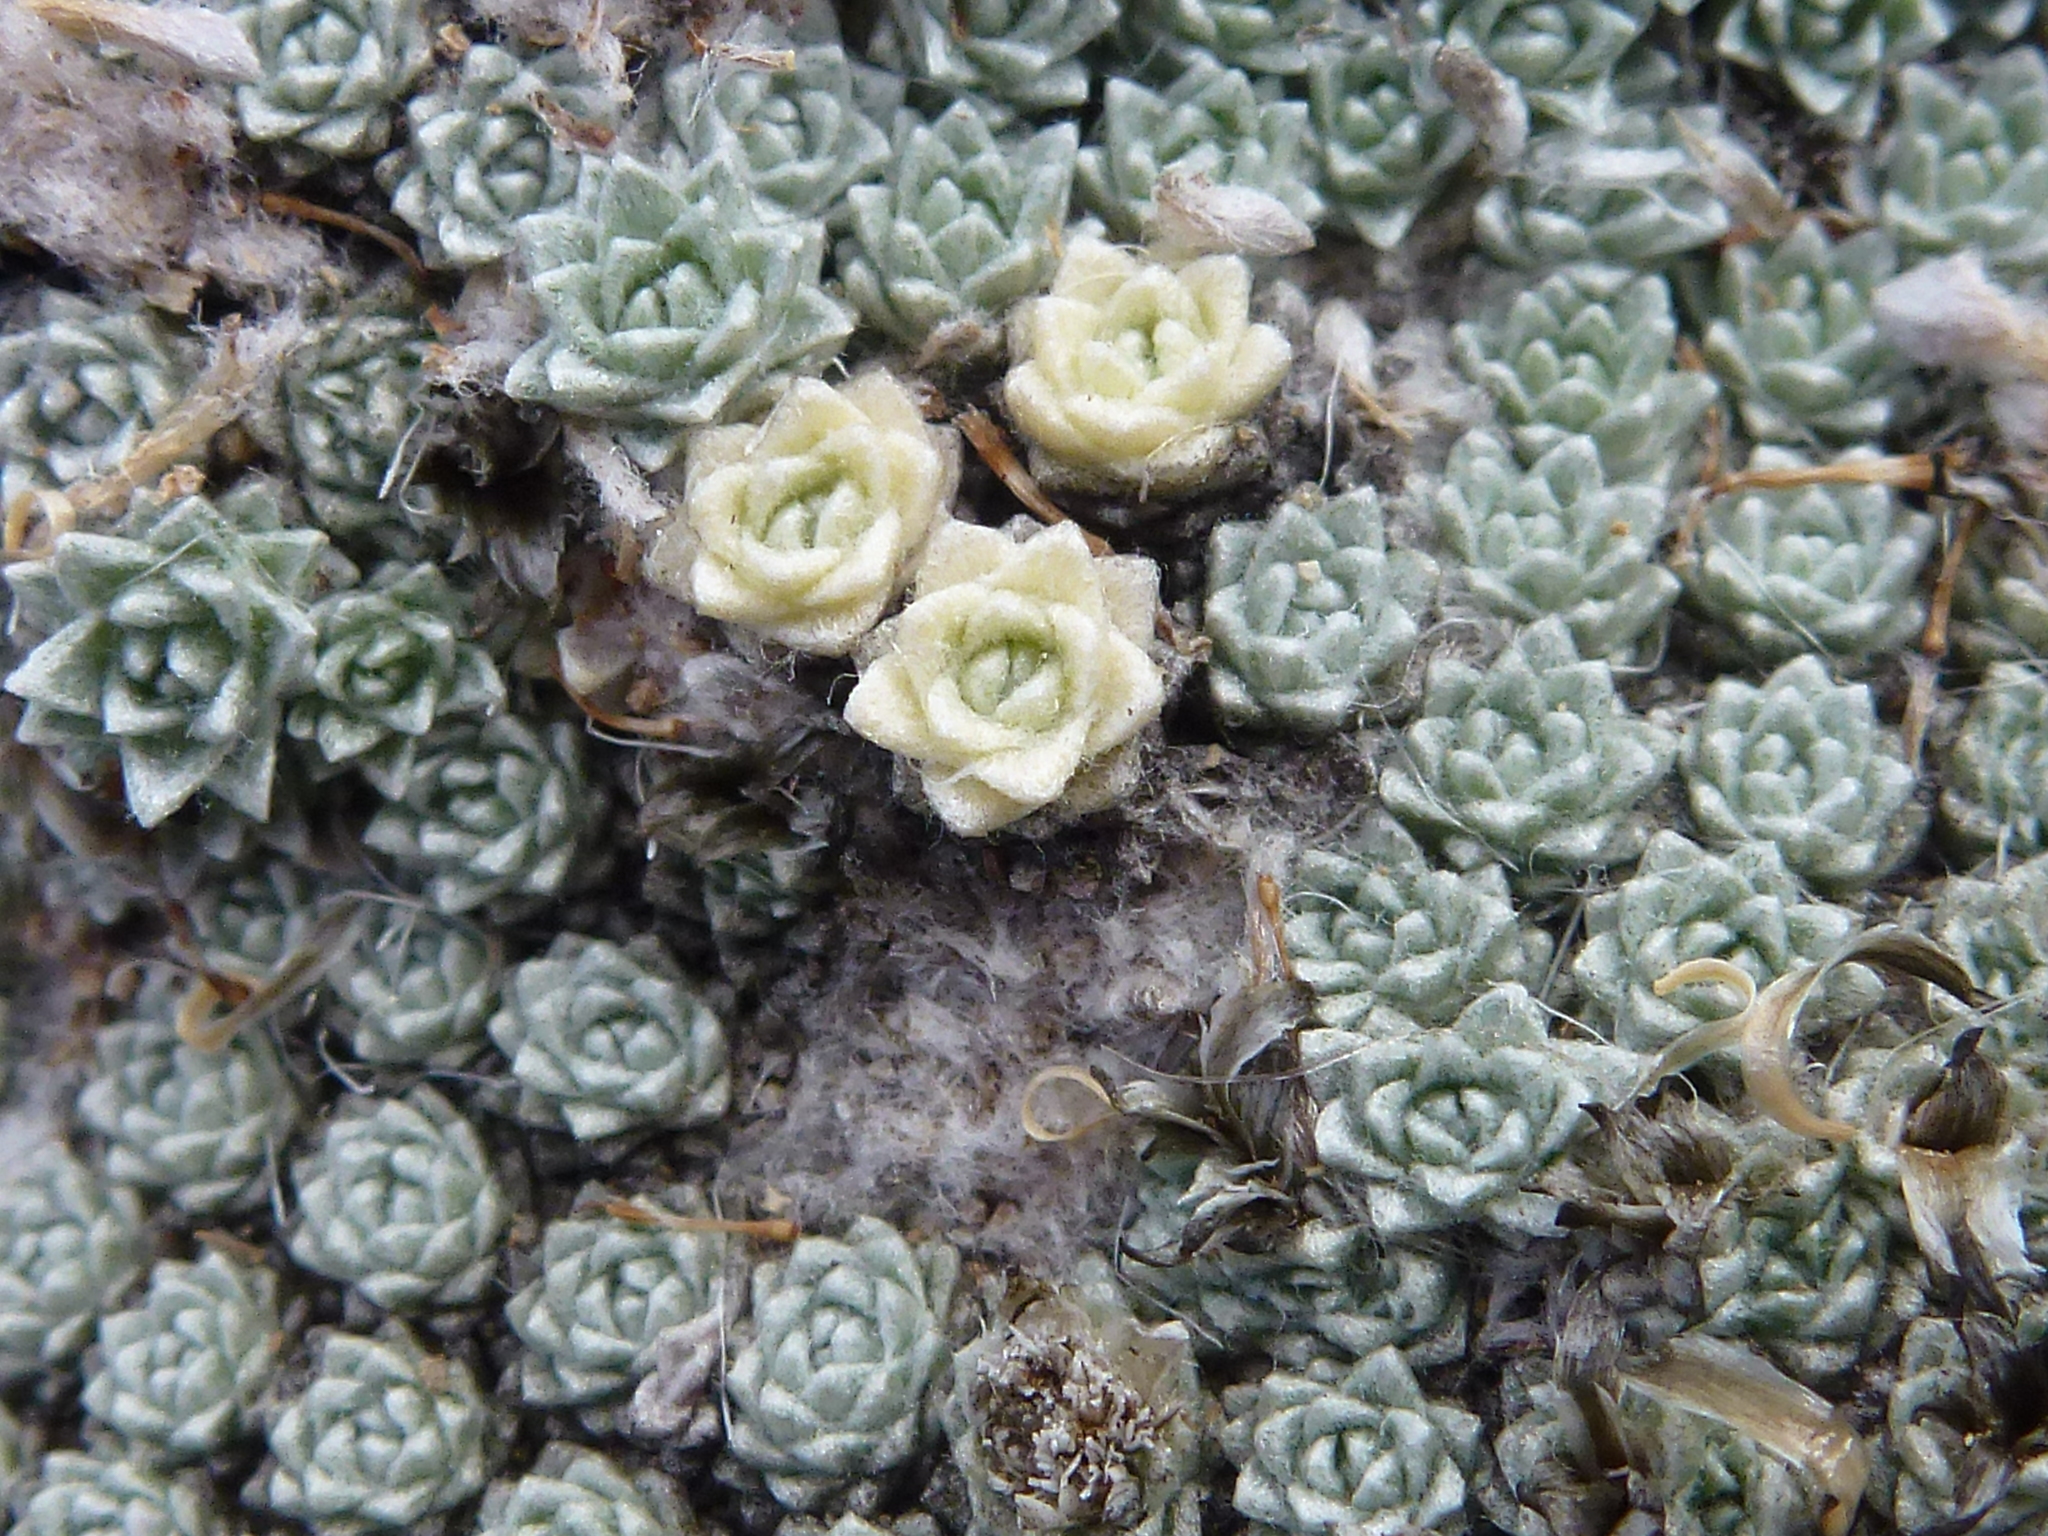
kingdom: Plantae
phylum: Tracheophyta
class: Magnoliopsida
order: Asterales
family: Asteraceae
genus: Raoulia
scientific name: Raoulia bryoides
